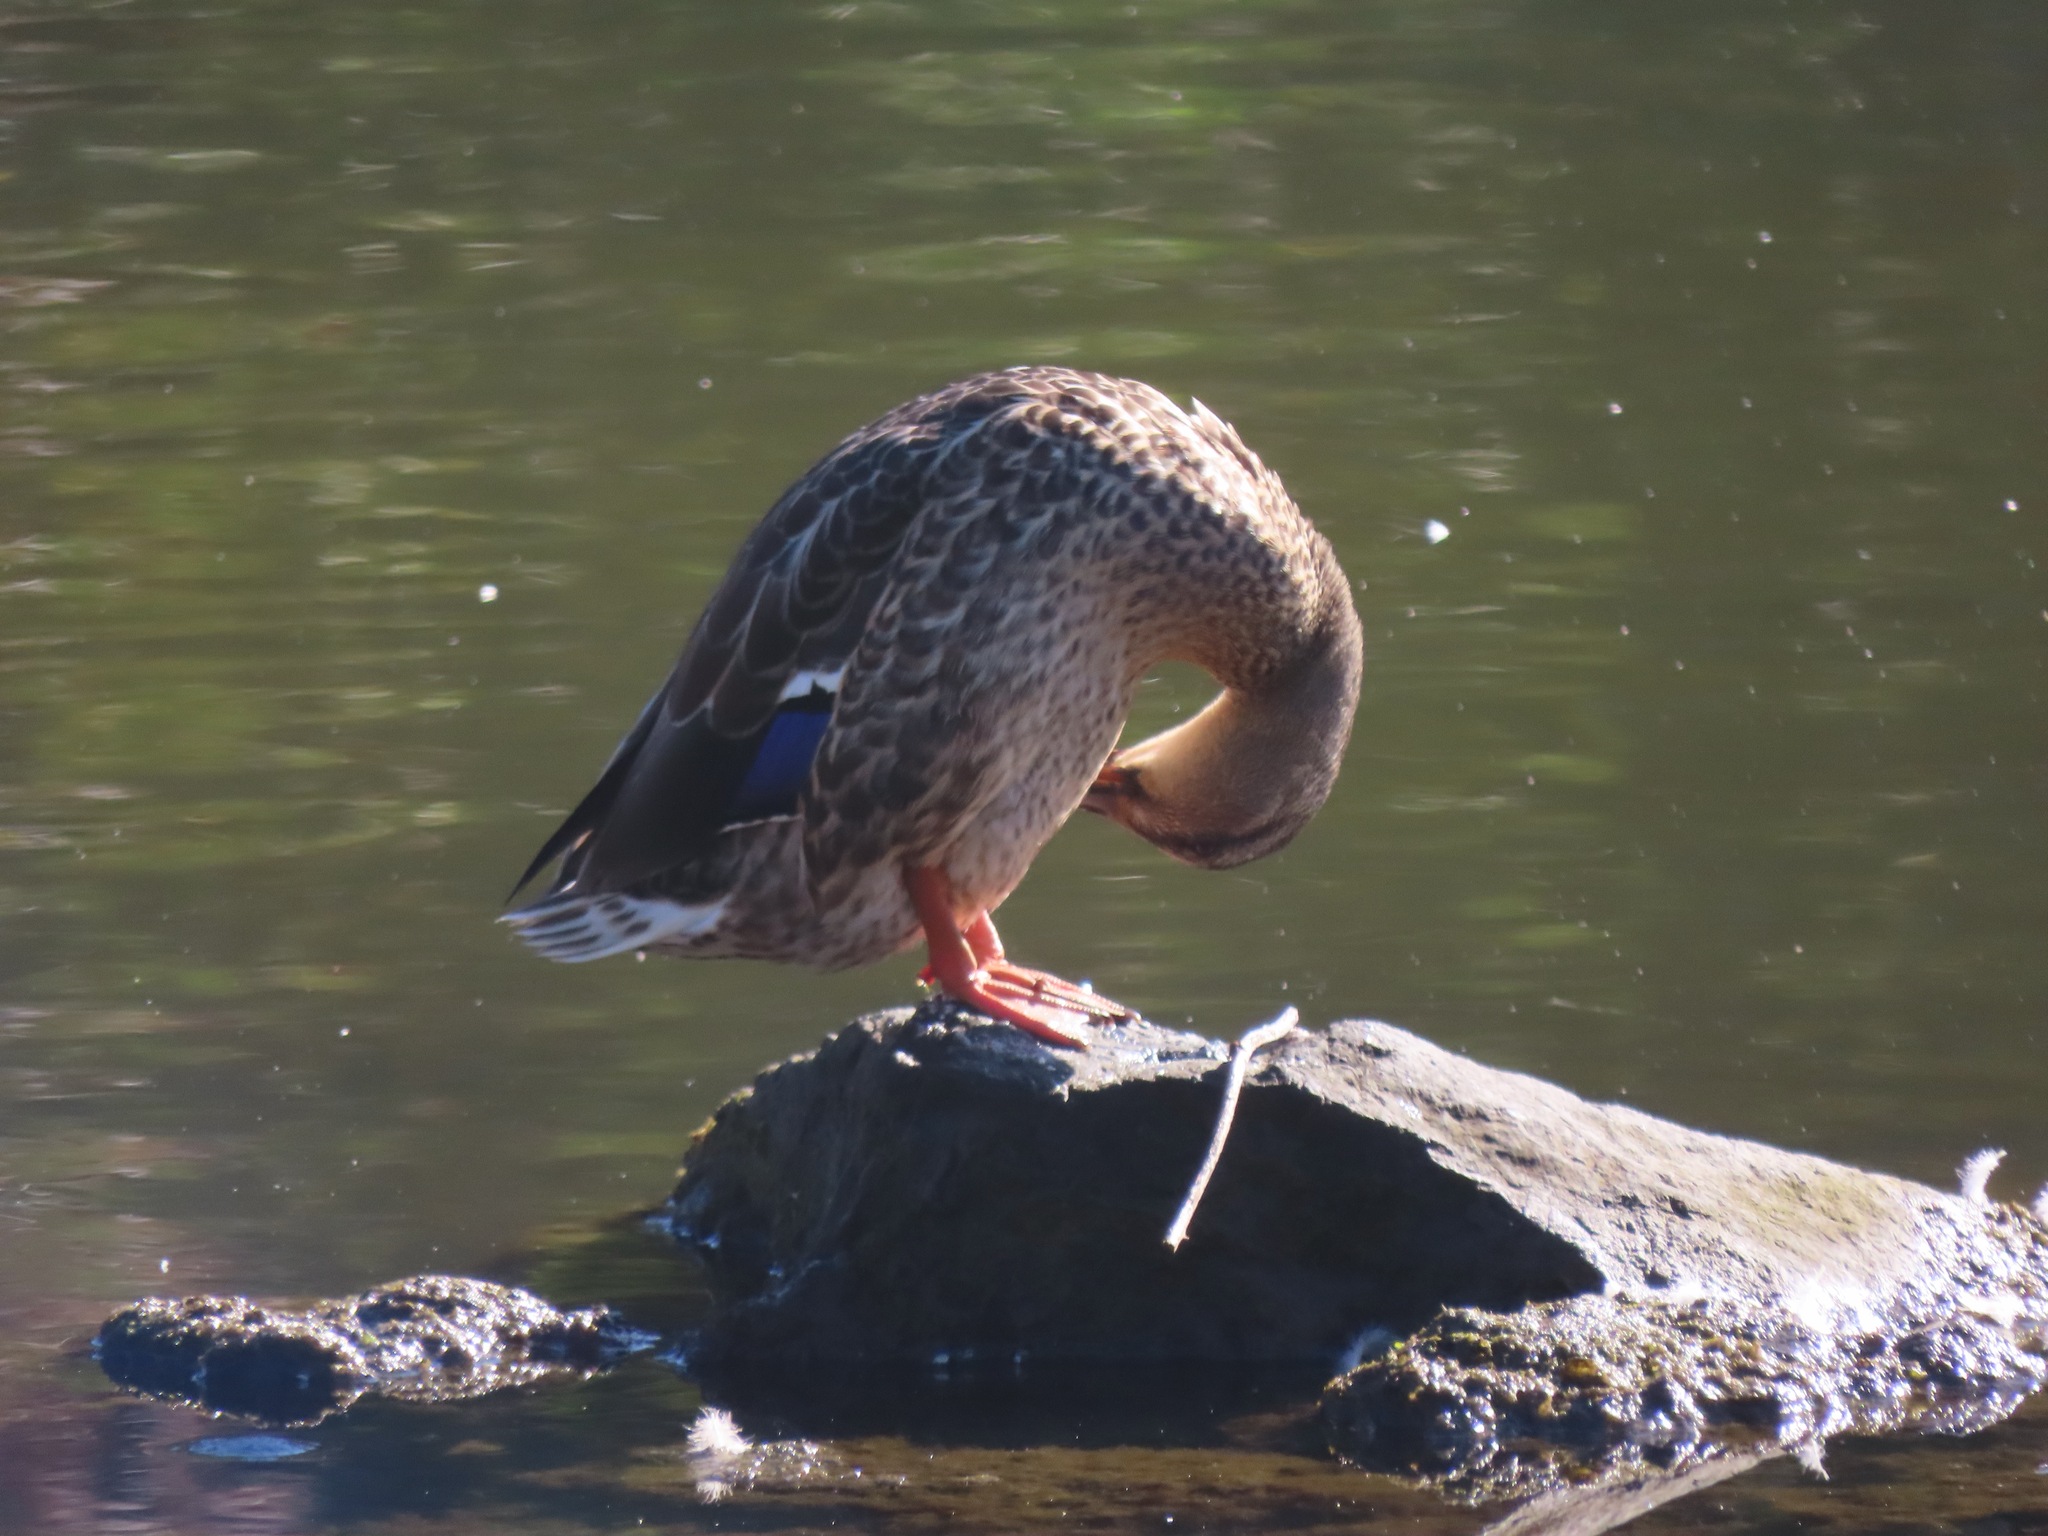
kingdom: Animalia
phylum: Chordata
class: Aves
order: Anseriformes
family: Anatidae
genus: Anas
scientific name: Anas platyrhynchos
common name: Mallard
